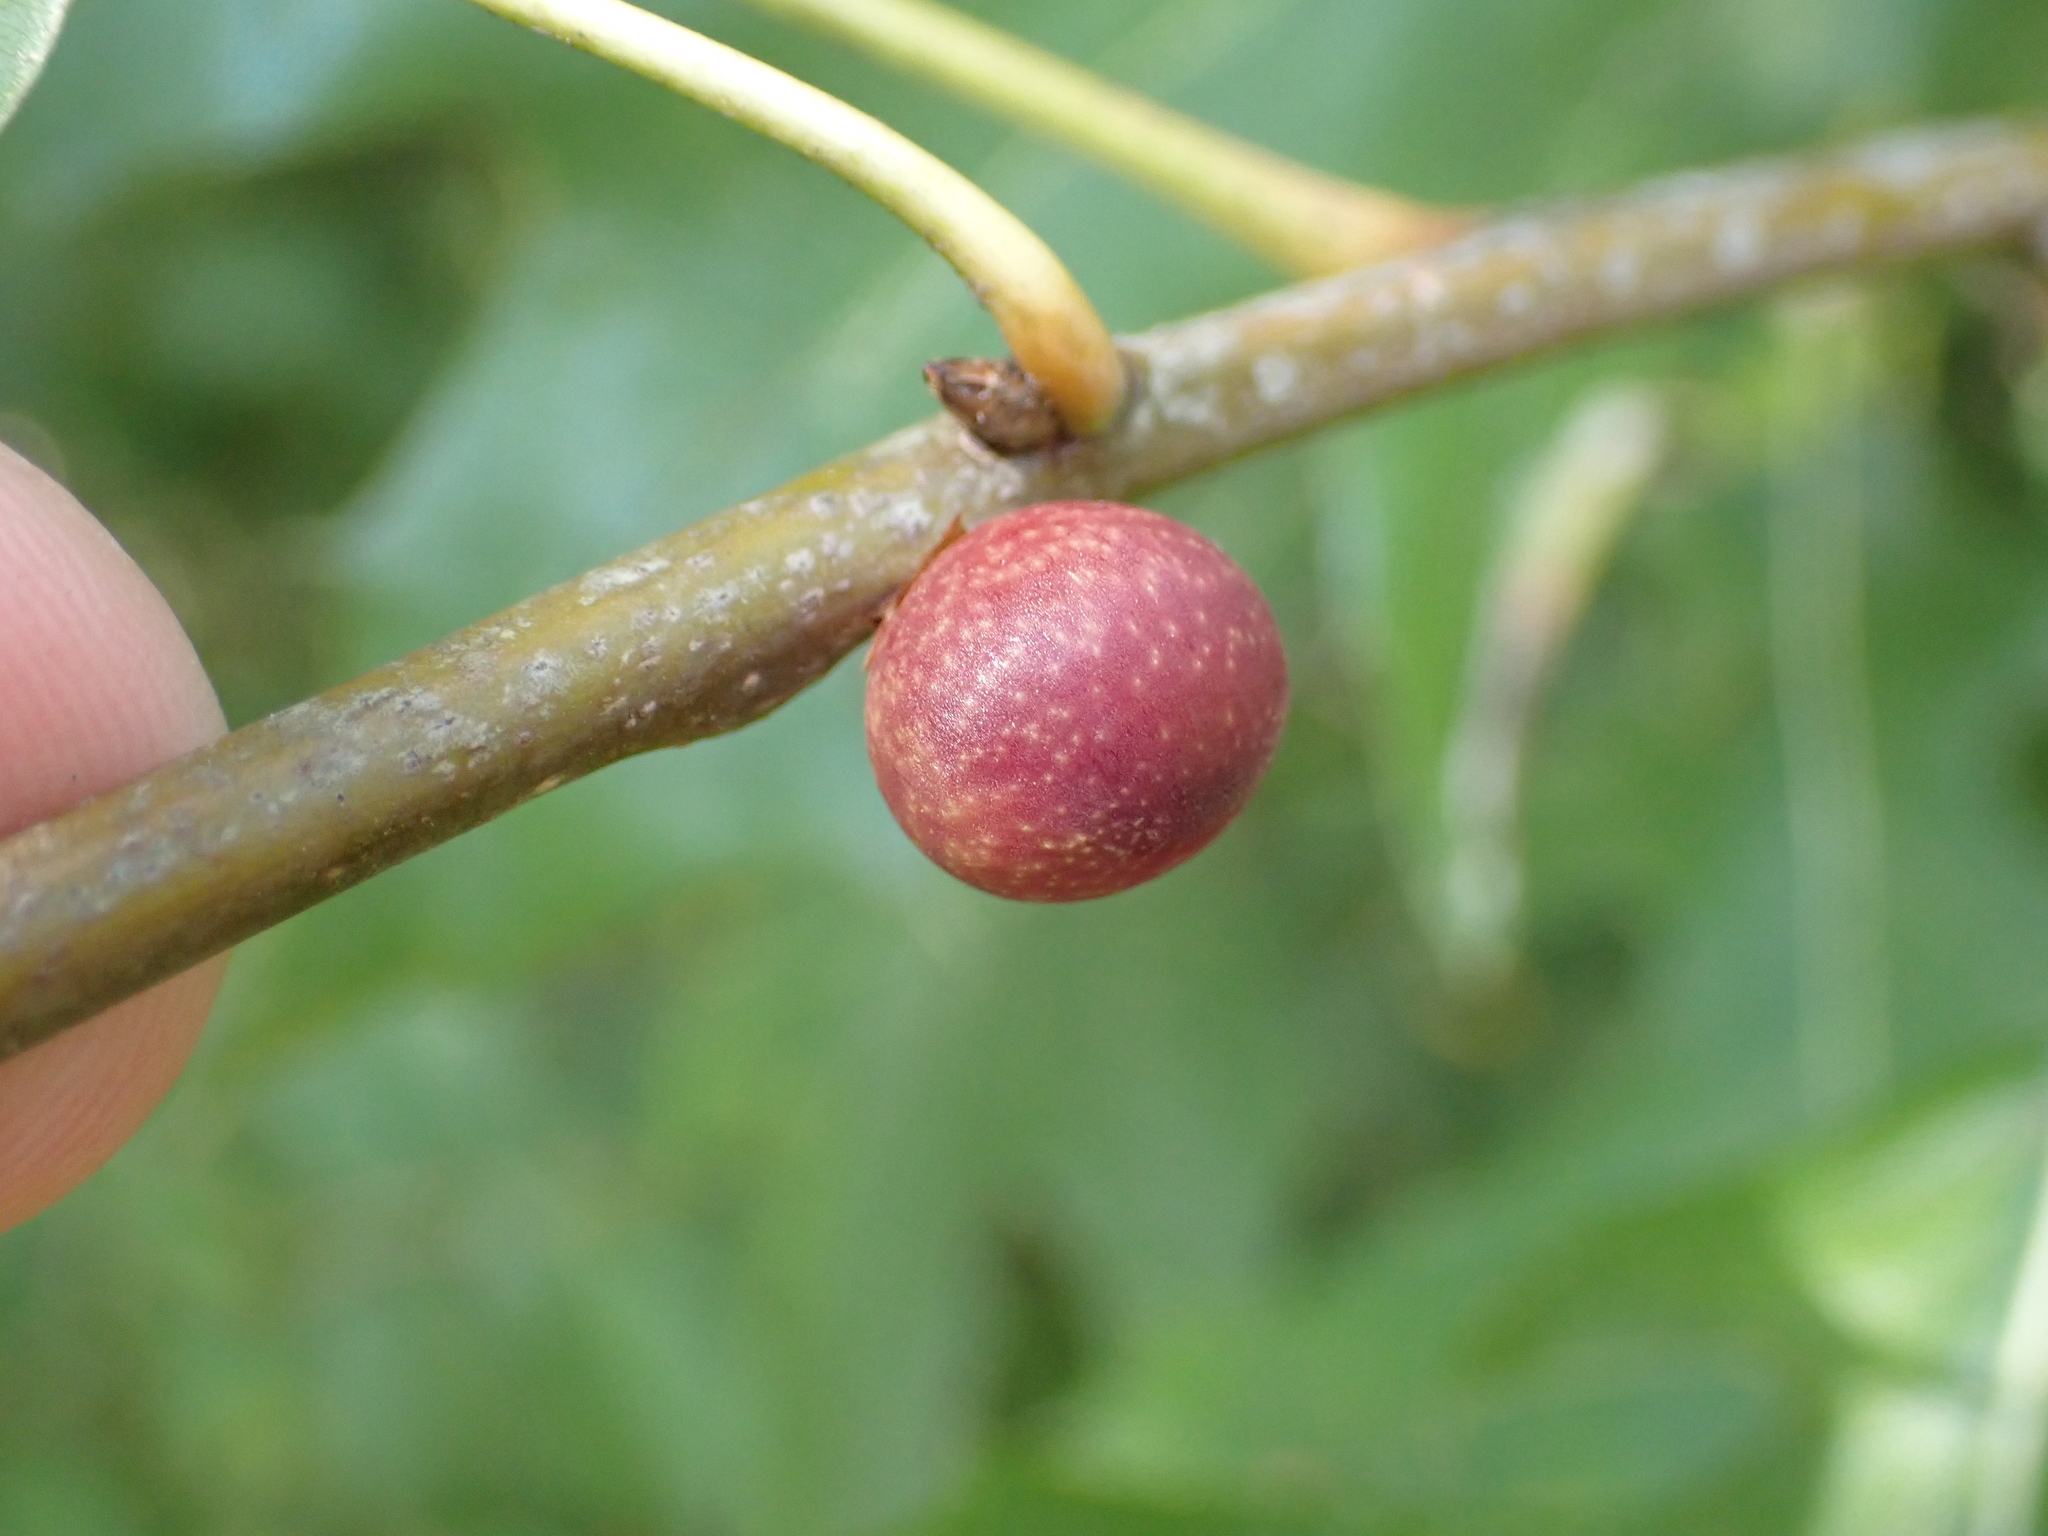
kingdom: Animalia
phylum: Arthropoda
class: Insecta
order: Hymenoptera
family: Cynipidae
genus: Kokkocynips
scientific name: Kokkocynips imbricariae
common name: Banded bullet gall wasp
